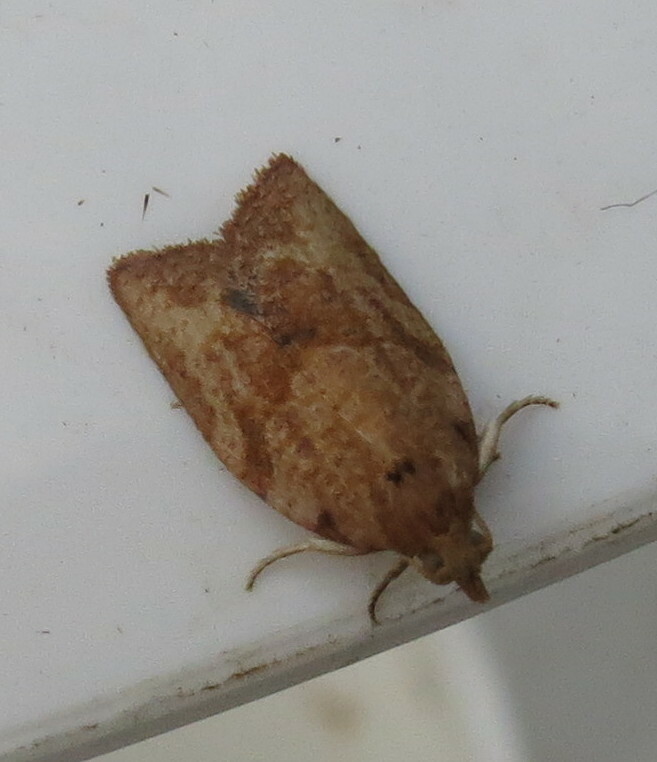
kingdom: Animalia
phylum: Arthropoda
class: Insecta
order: Lepidoptera
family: Tortricidae
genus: Epiphyas
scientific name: Epiphyas postvittana
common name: Light brown apple moth
